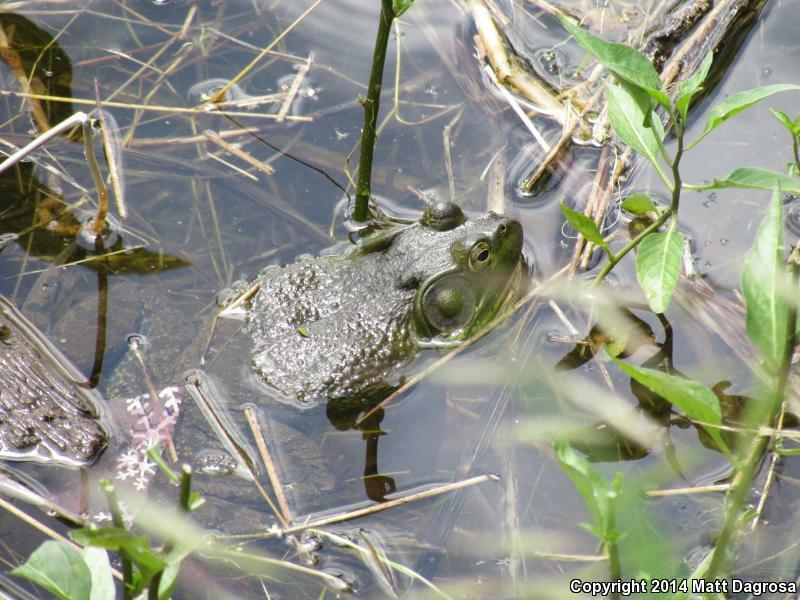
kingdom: Animalia
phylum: Chordata
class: Amphibia
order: Anura
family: Ranidae
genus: Lithobates
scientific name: Lithobates catesbeianus
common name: American bullfrog
